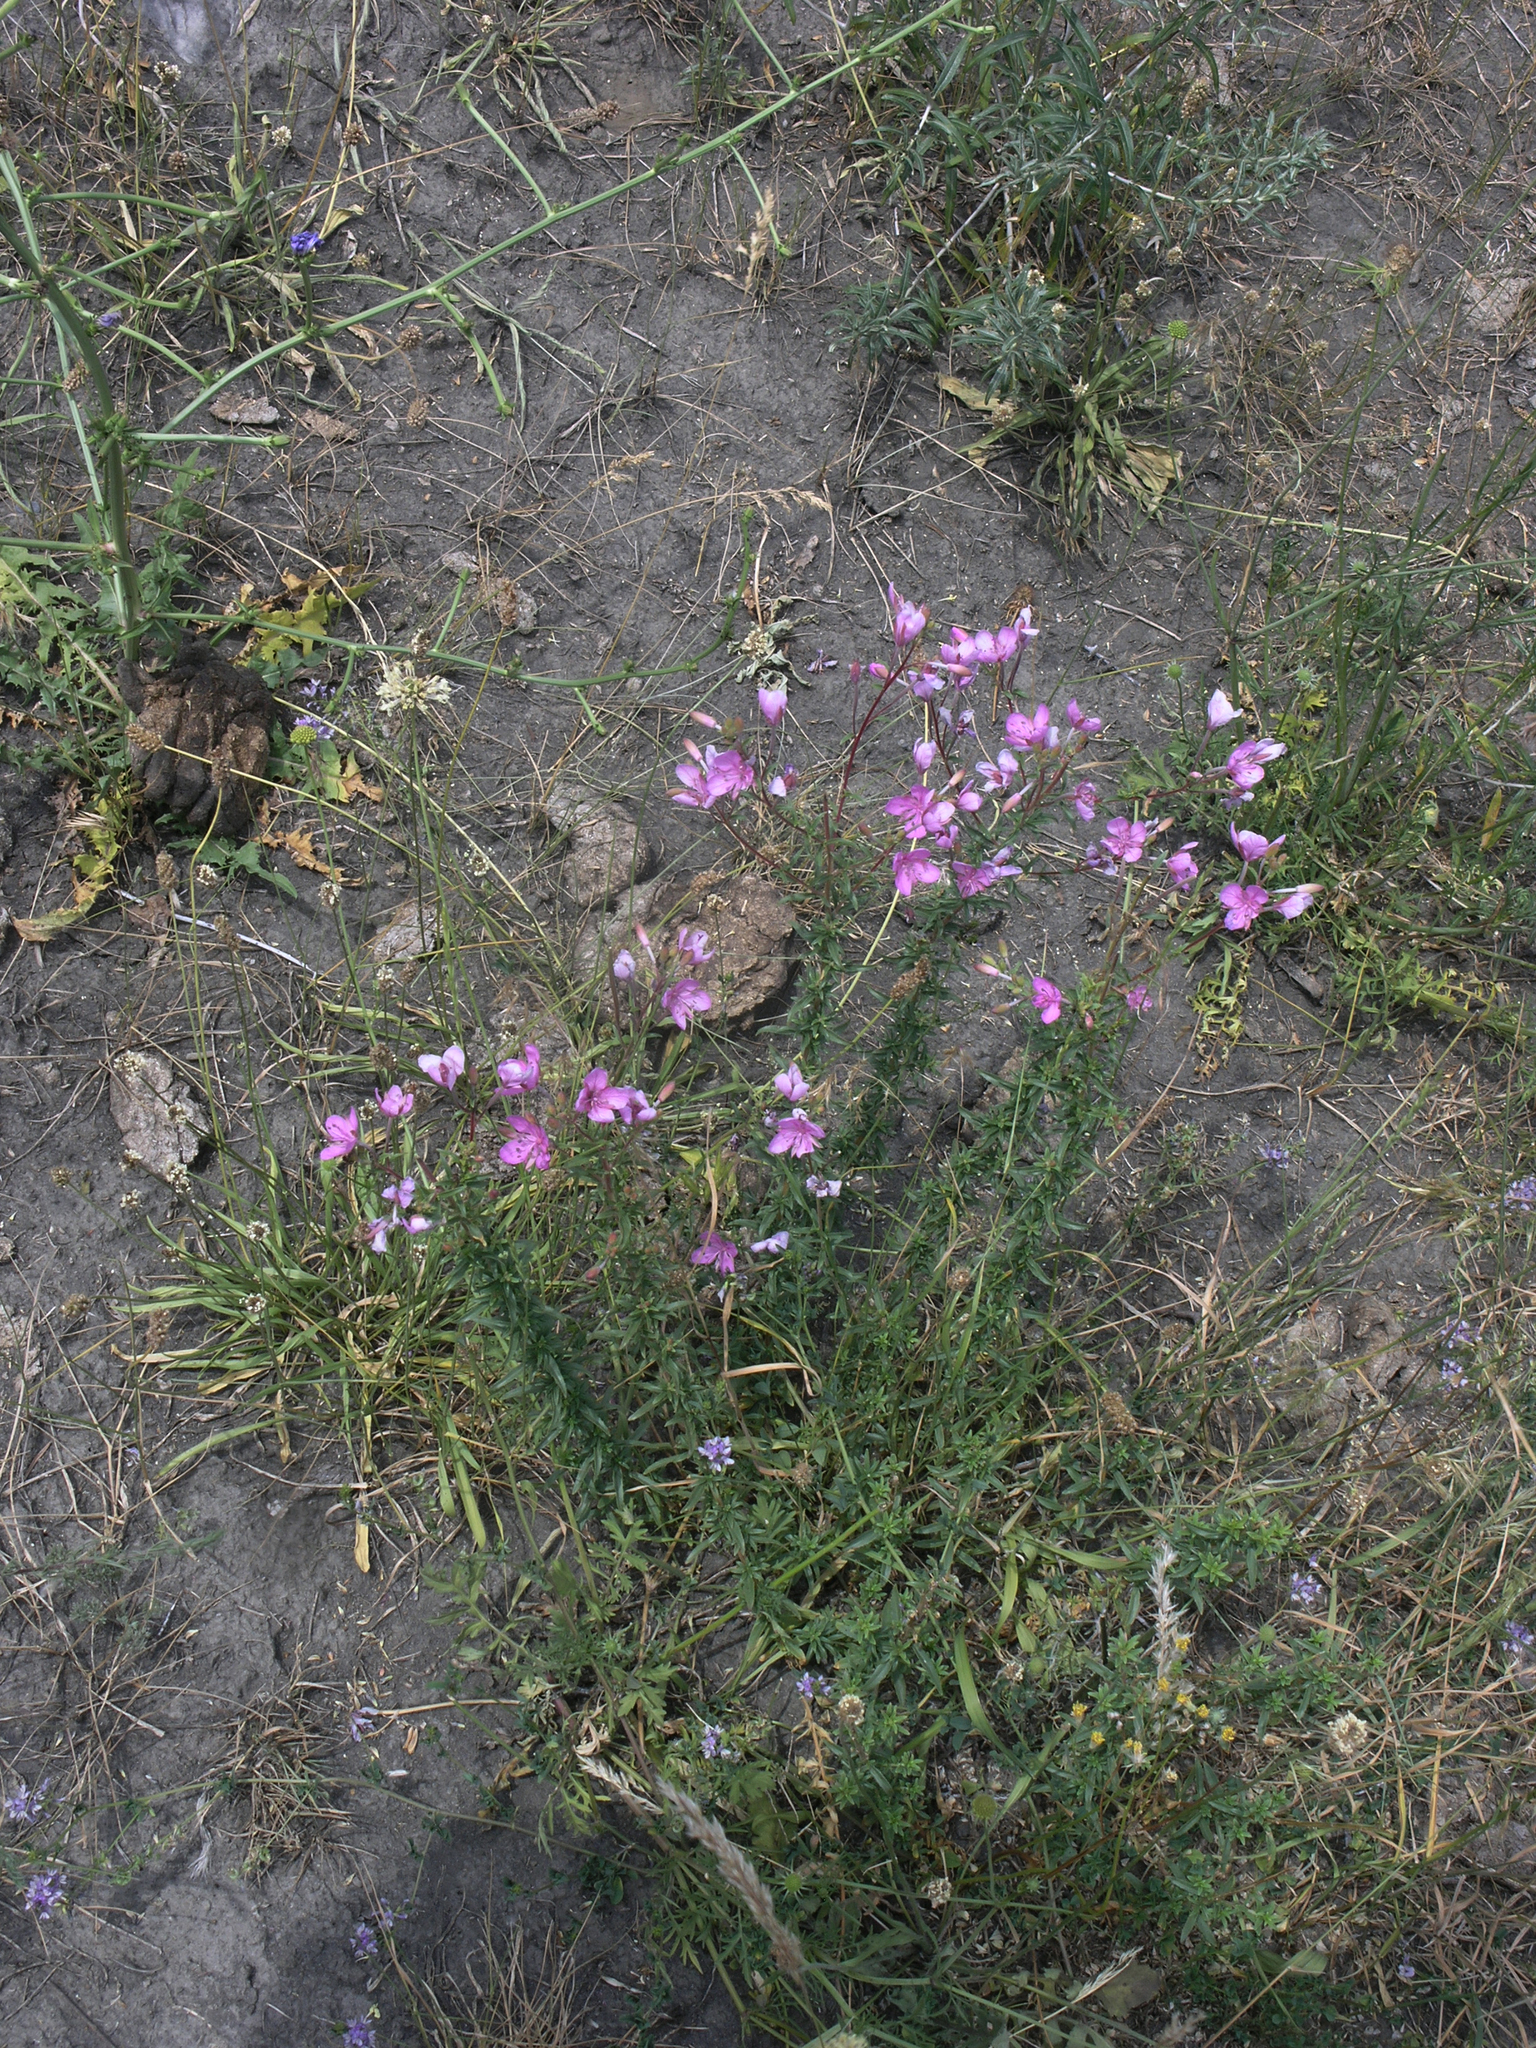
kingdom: Plantae
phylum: Tracheophyta
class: Magnoliopsida
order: Myrtales
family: Onagraceae
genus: Chamaenerion
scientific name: Chamaenerion colchicum
